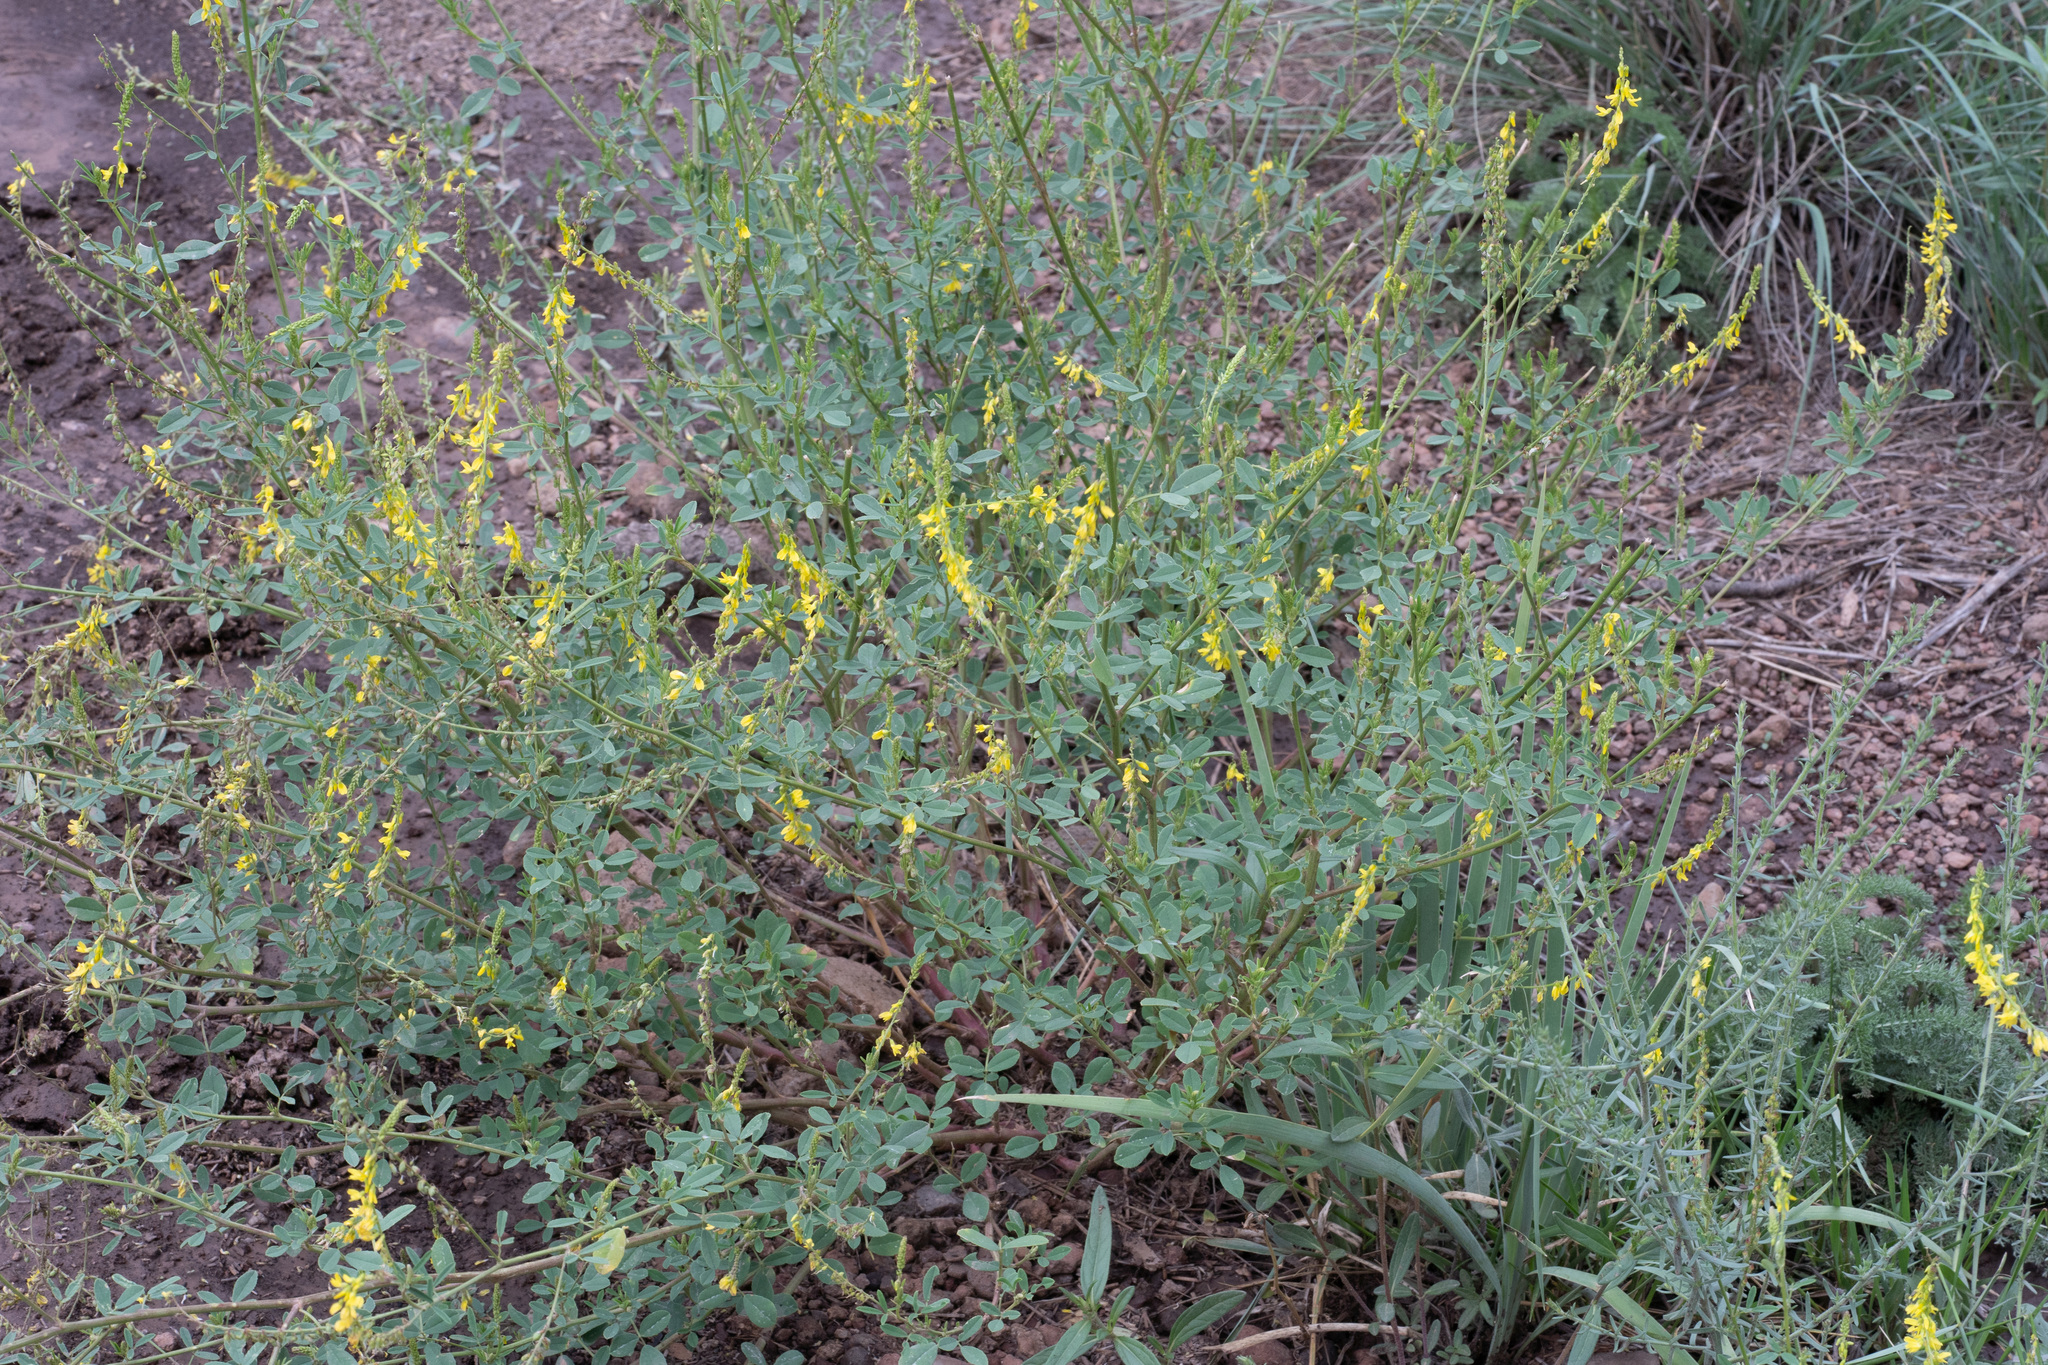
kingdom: Plantae
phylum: Tracheophyta
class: Magnoliopsida
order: Fabales
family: Fabaceae
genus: Melilotus
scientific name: Melilotus officinalis
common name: Sweetclover
